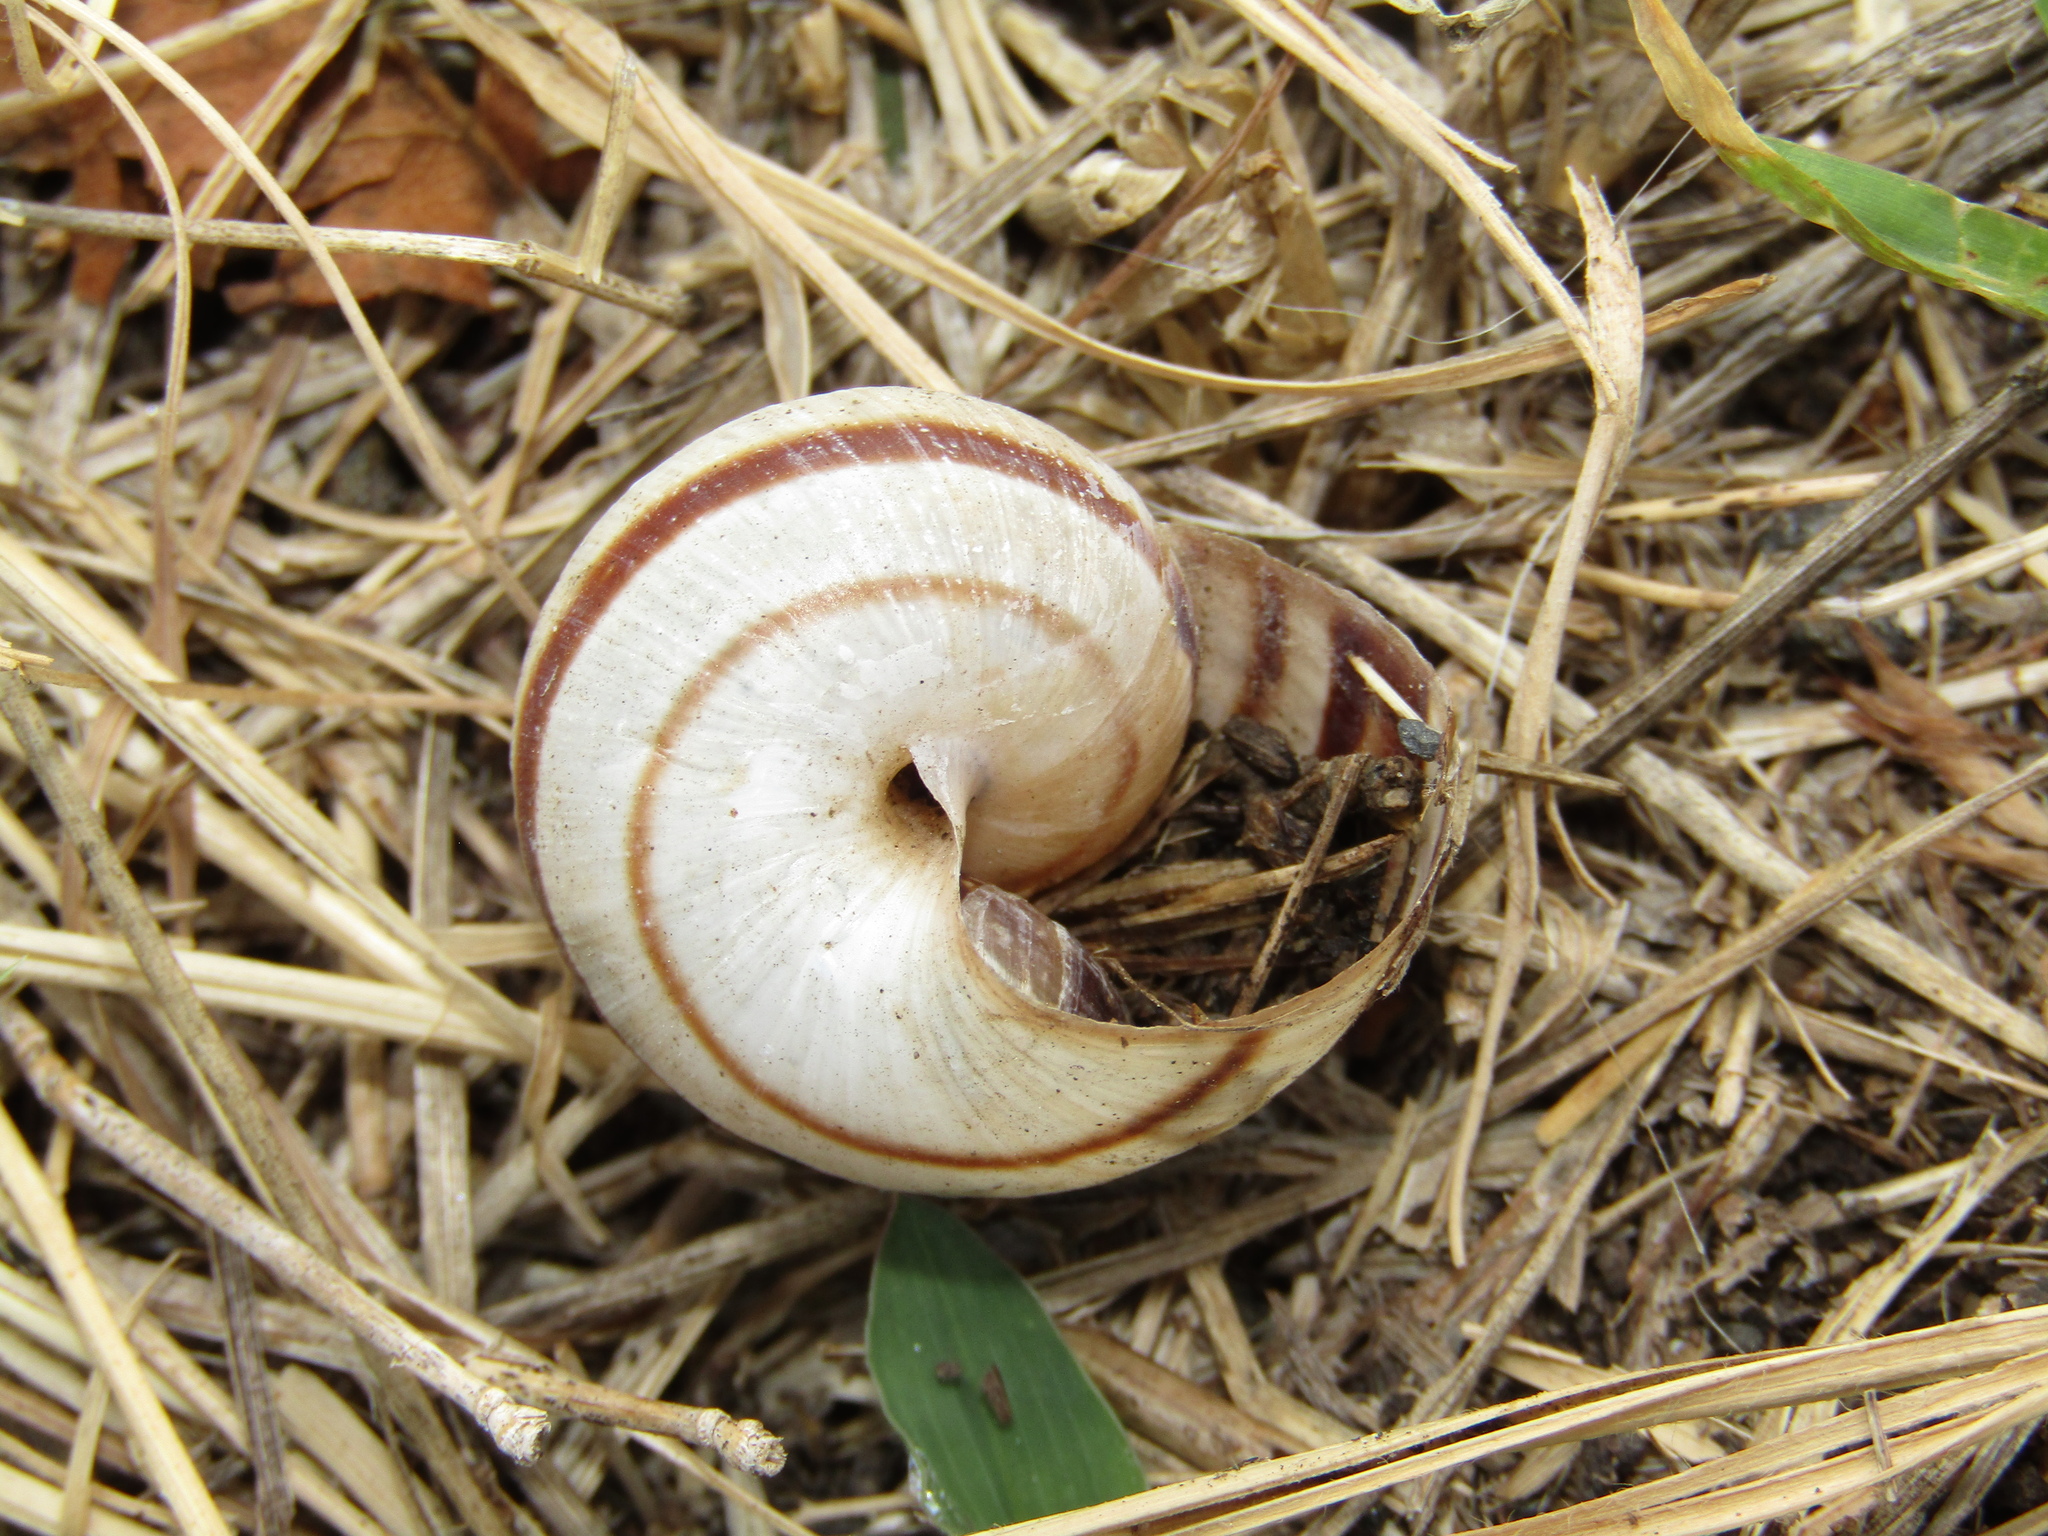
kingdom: Animalia
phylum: Mollusca
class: Gastropoda
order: Stylommatophora
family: Helicidae
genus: Helix
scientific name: Helix albescens
